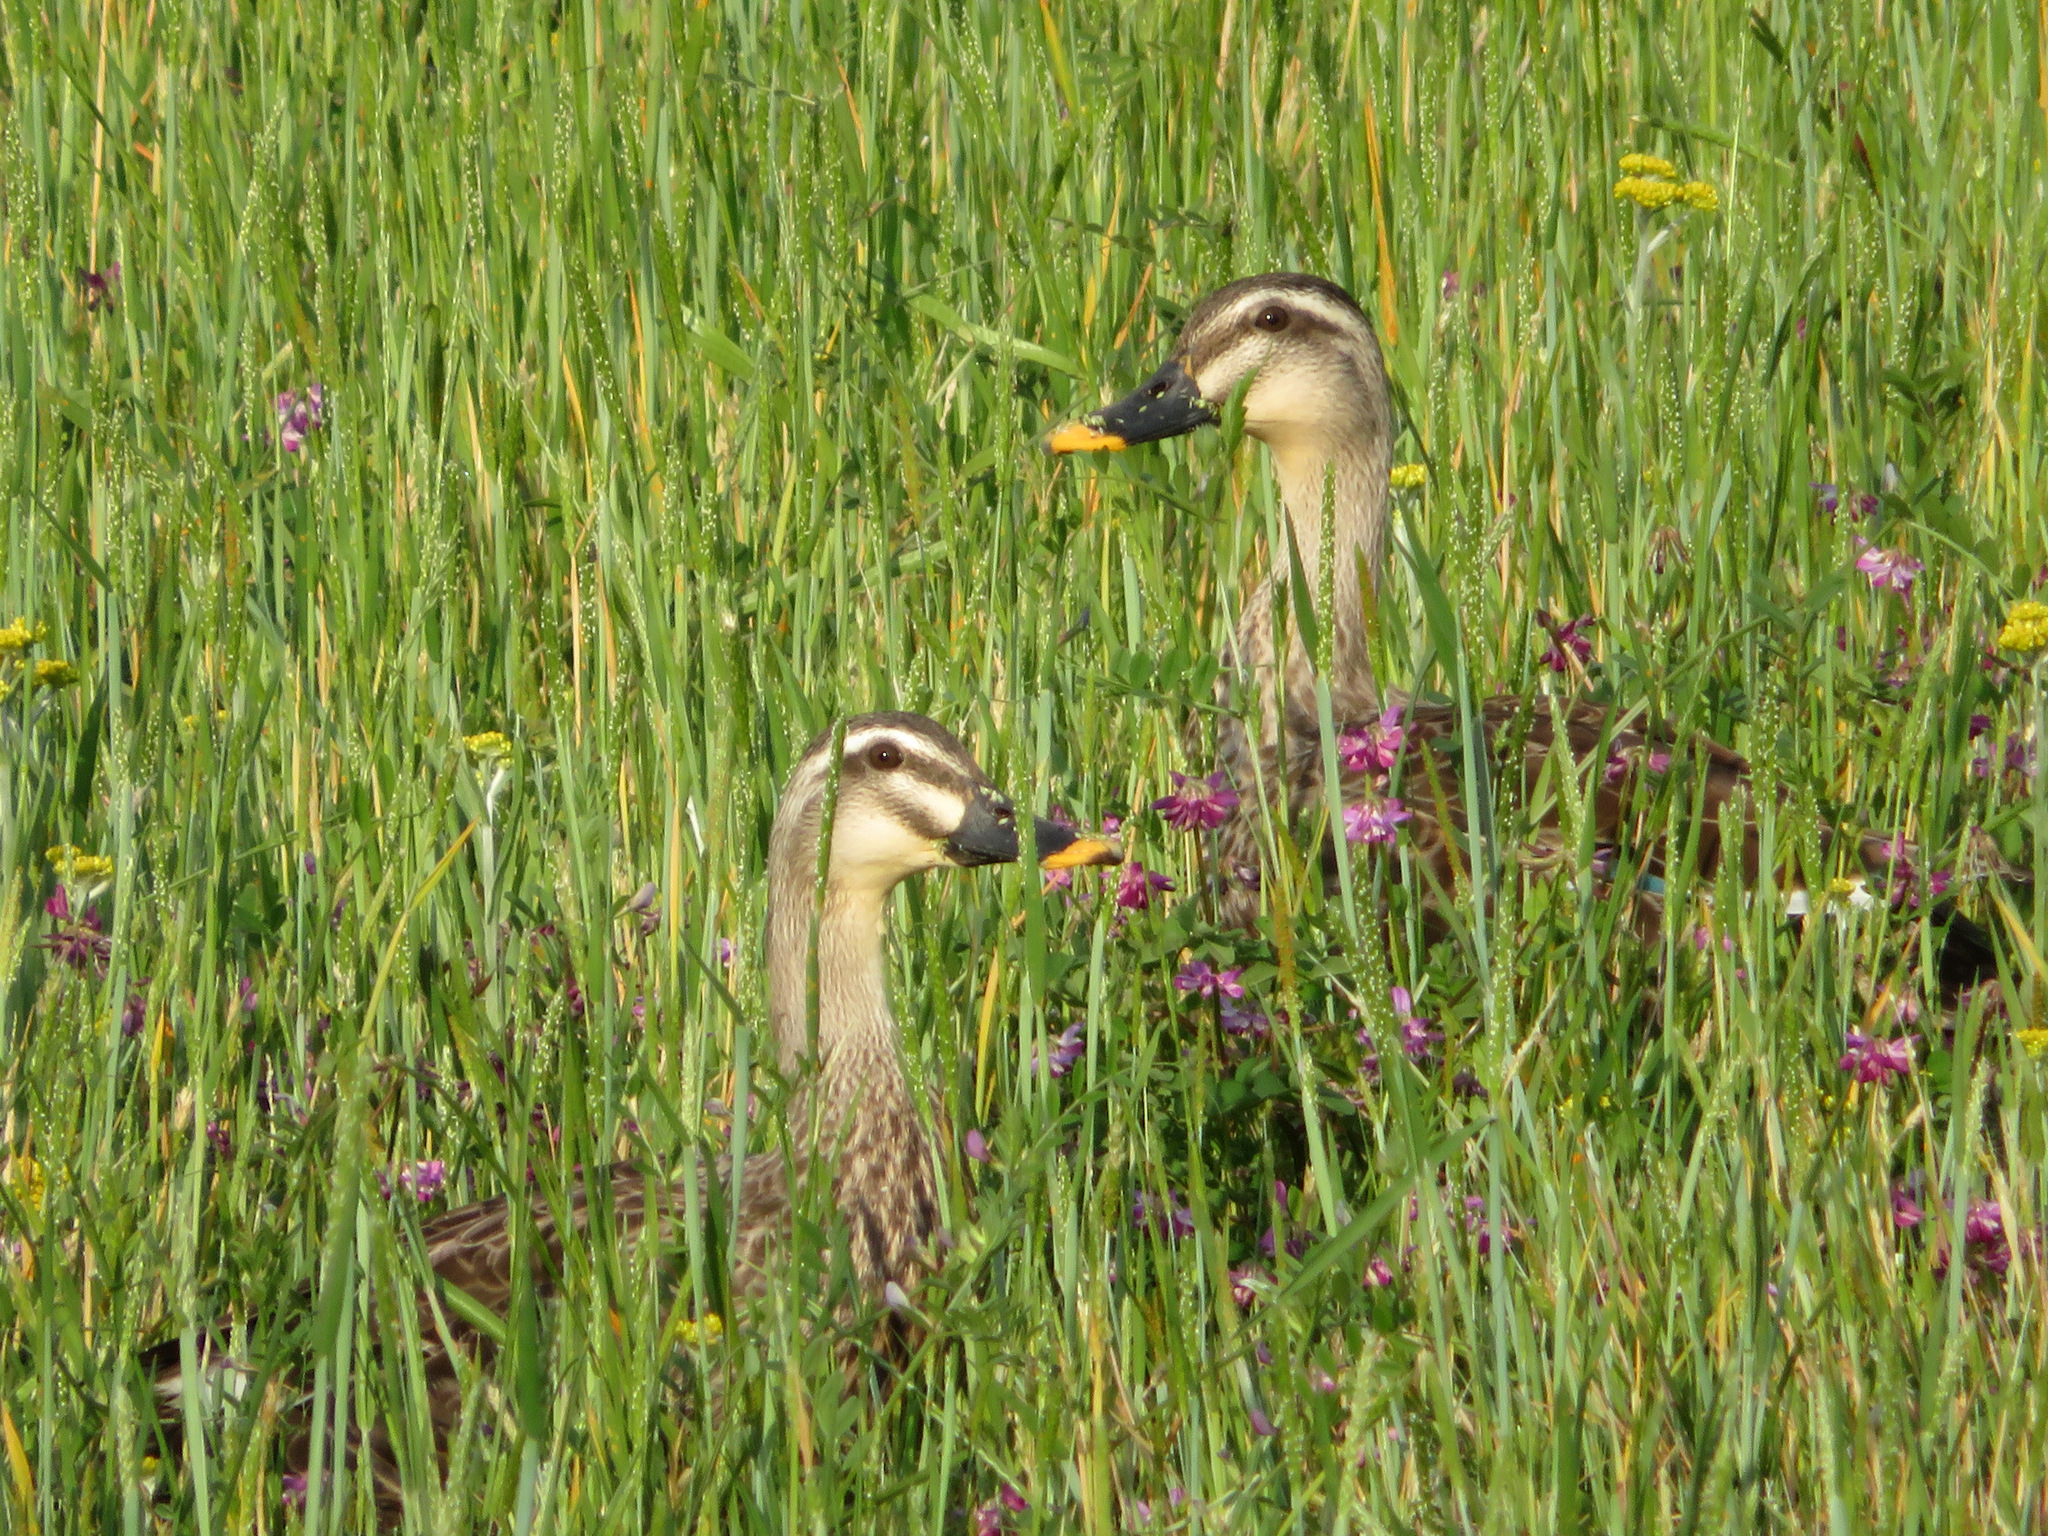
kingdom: Animalia
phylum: Chordata
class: Aves
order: Anseriformes
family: Anatidae
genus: Anas
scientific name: Anas zonorhyncha
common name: Eastern spot-billed duck
